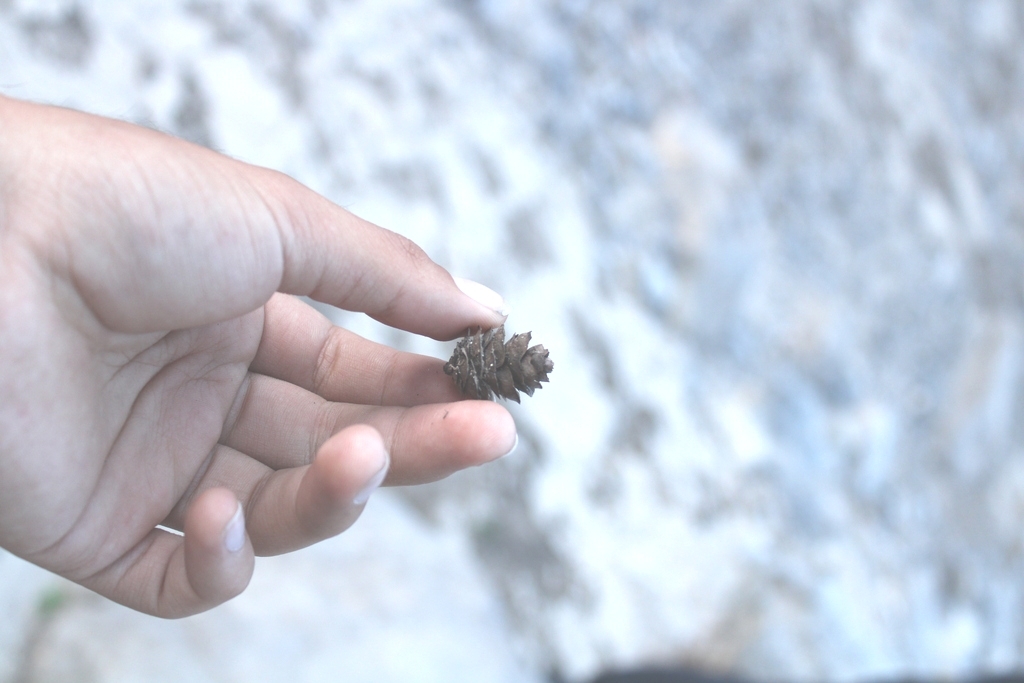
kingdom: Plantae
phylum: Tracheophyta
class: Pinopsida
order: Pinales
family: Pinaceae
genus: Pseudotsuga
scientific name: Pseudotsuga menziesii
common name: Douglas fir
